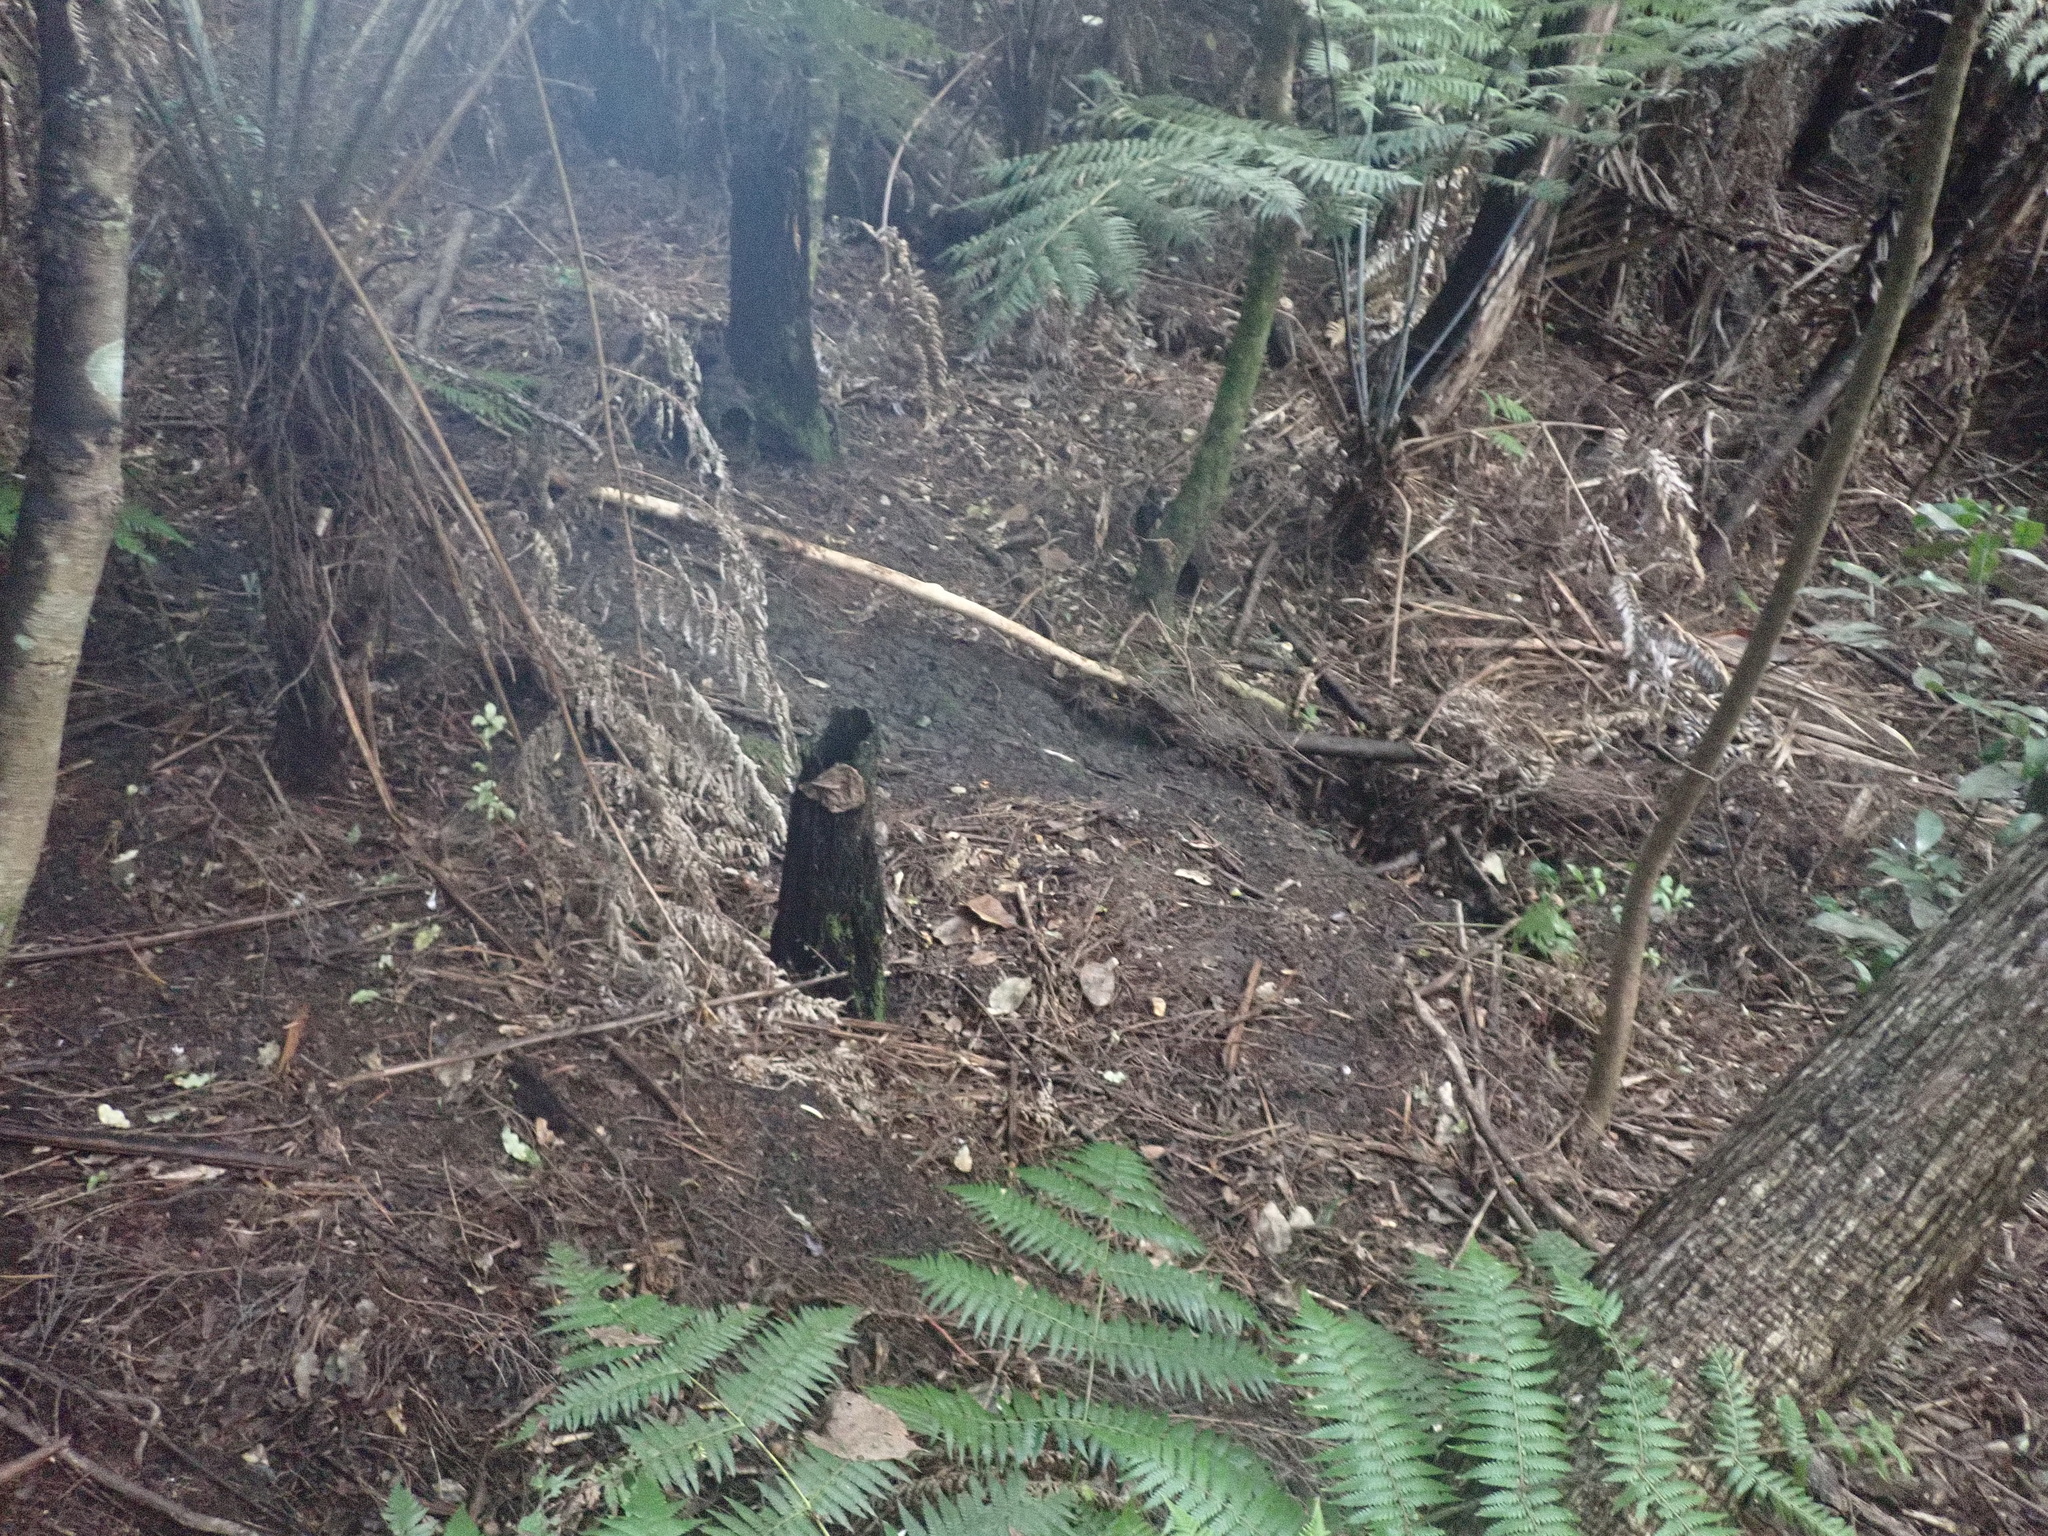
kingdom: Plantae
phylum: Tracheophyta
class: Polypodiopsida
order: Cyatheales
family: Cyatheaceae
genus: Alsophila
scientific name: Alsophila dealbata
